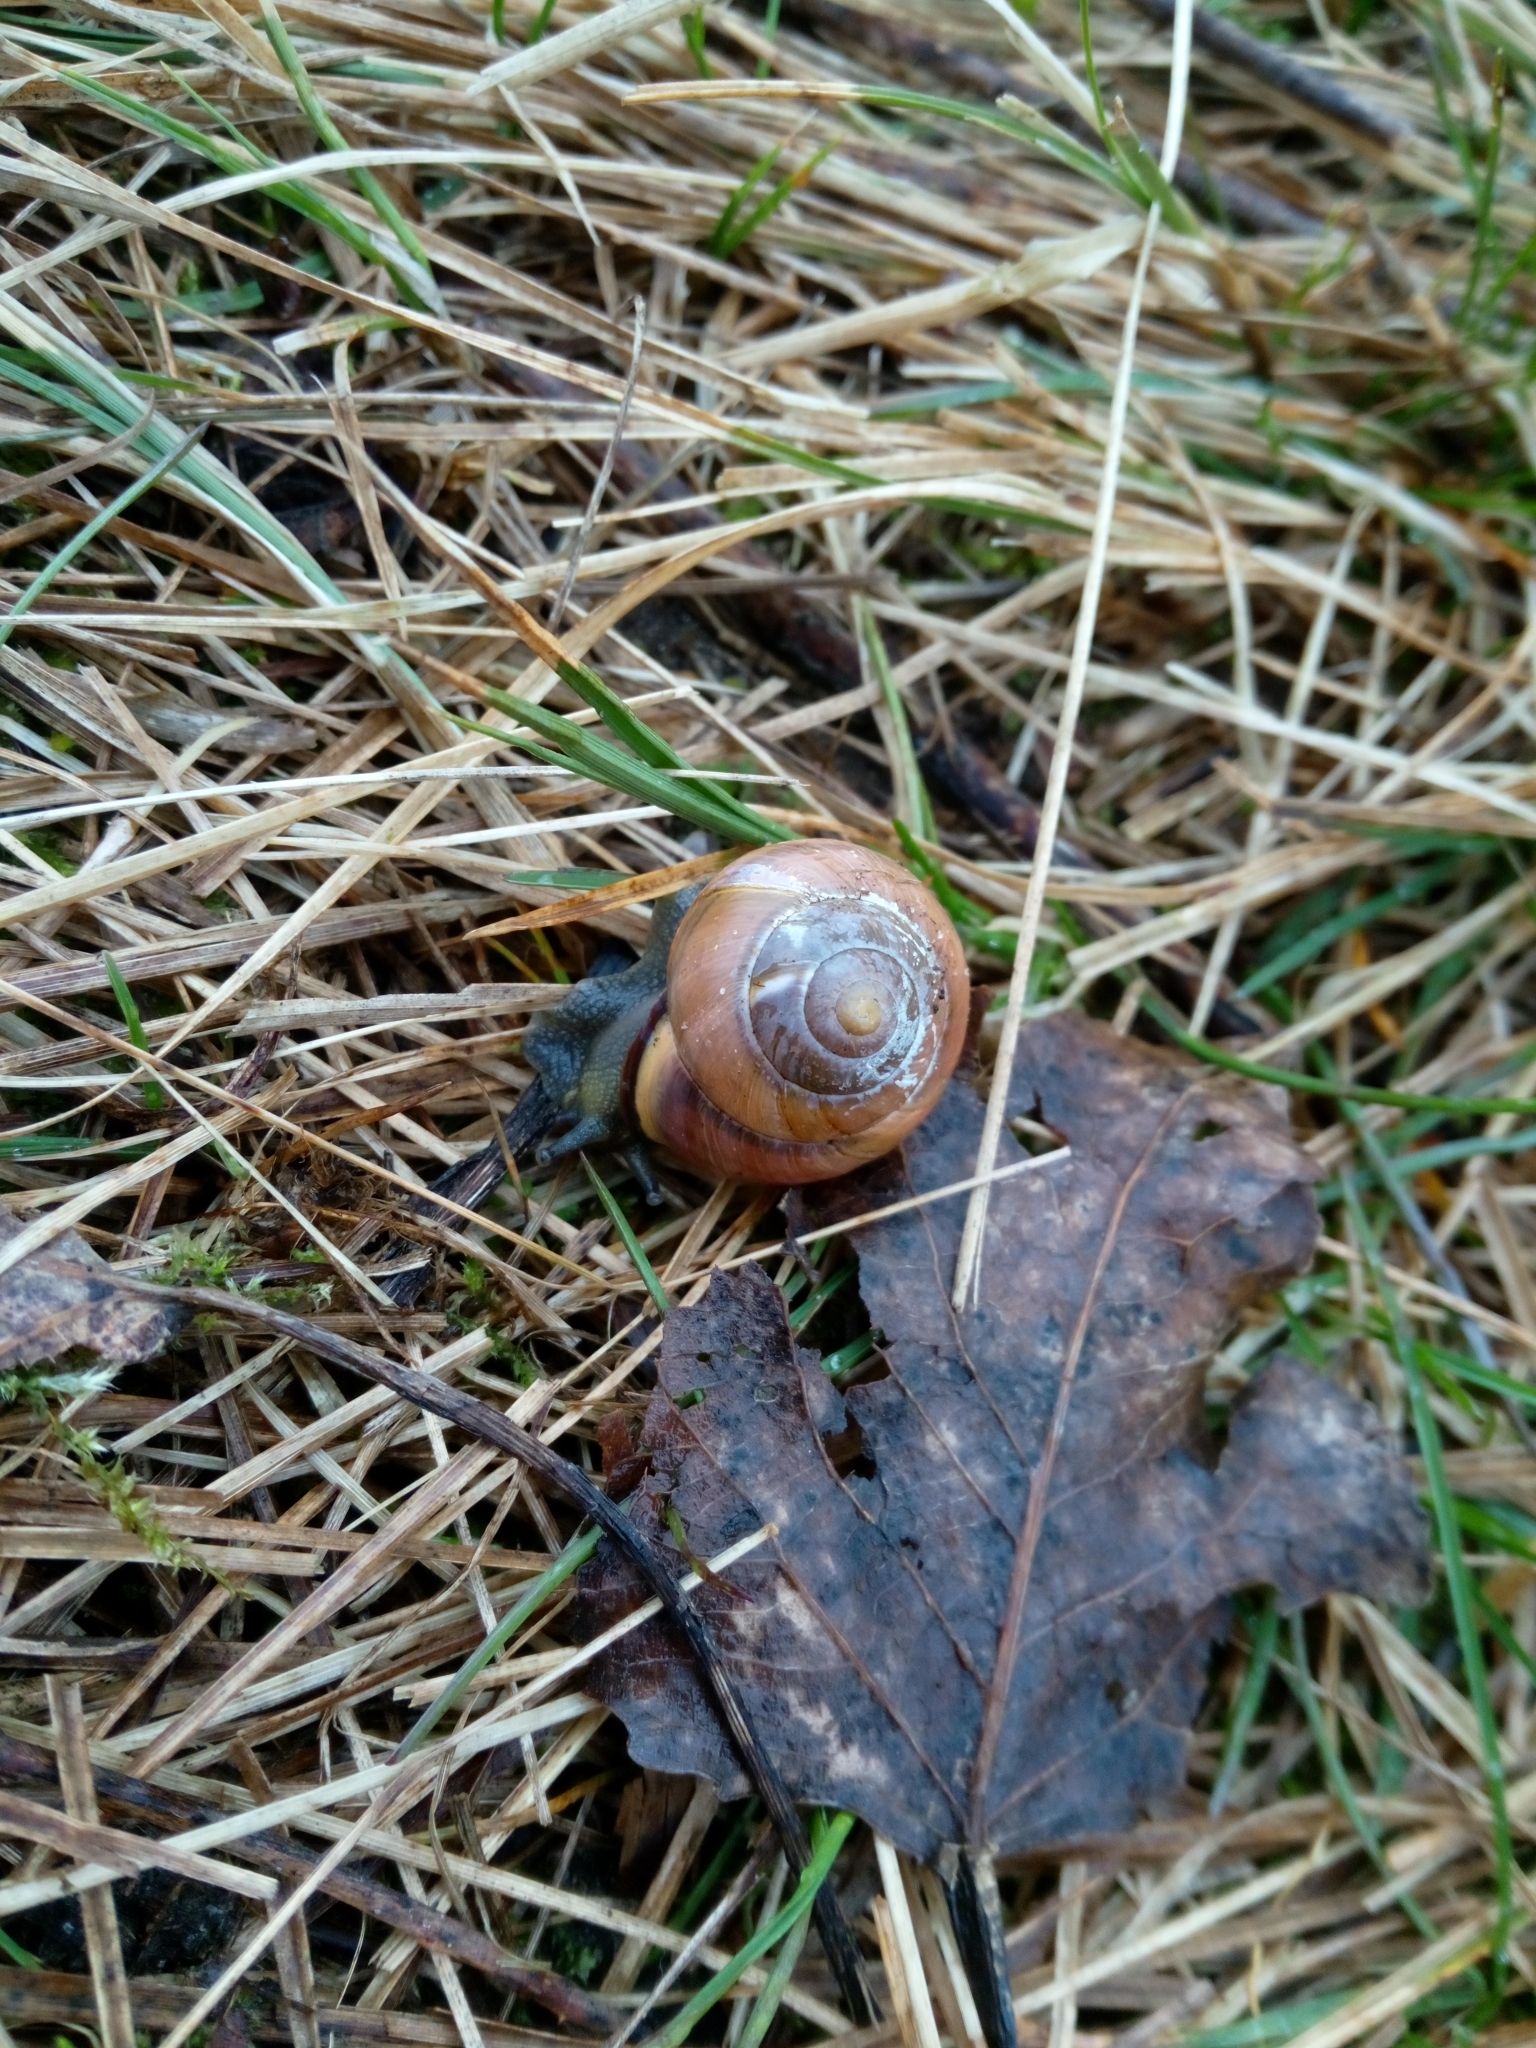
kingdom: Animalia
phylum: Mollusca
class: Gastropoda
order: Stylommatophora
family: Helicidae
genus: Cepaea
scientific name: Cepaea nemoralis
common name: Grovesnail
